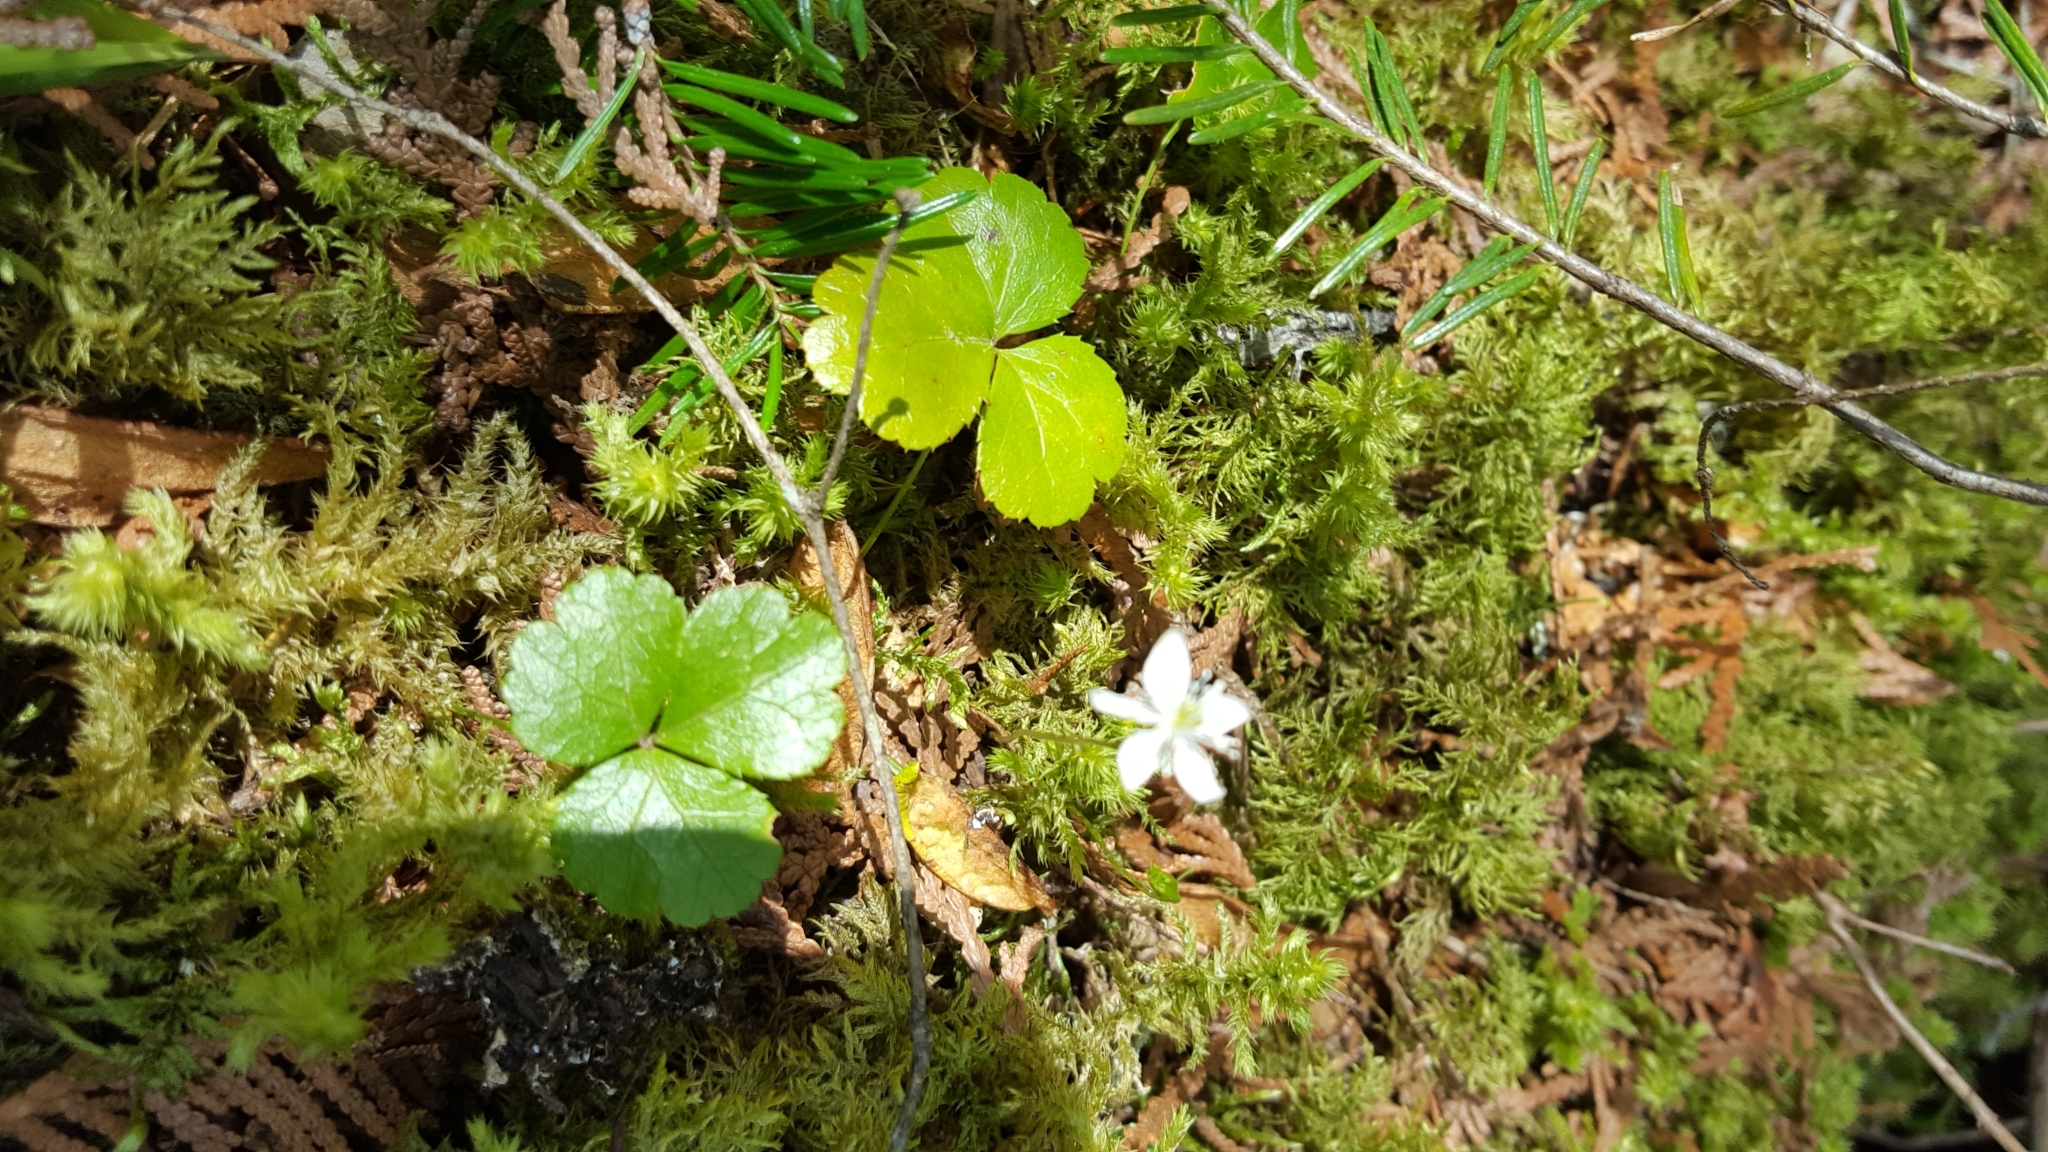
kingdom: Plantae
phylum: Tracheophyta
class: Magnoliopsida
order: Ranunculales
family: Ranunculaceae
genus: Coptis
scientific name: Coptis trifolia
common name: Canker-root
